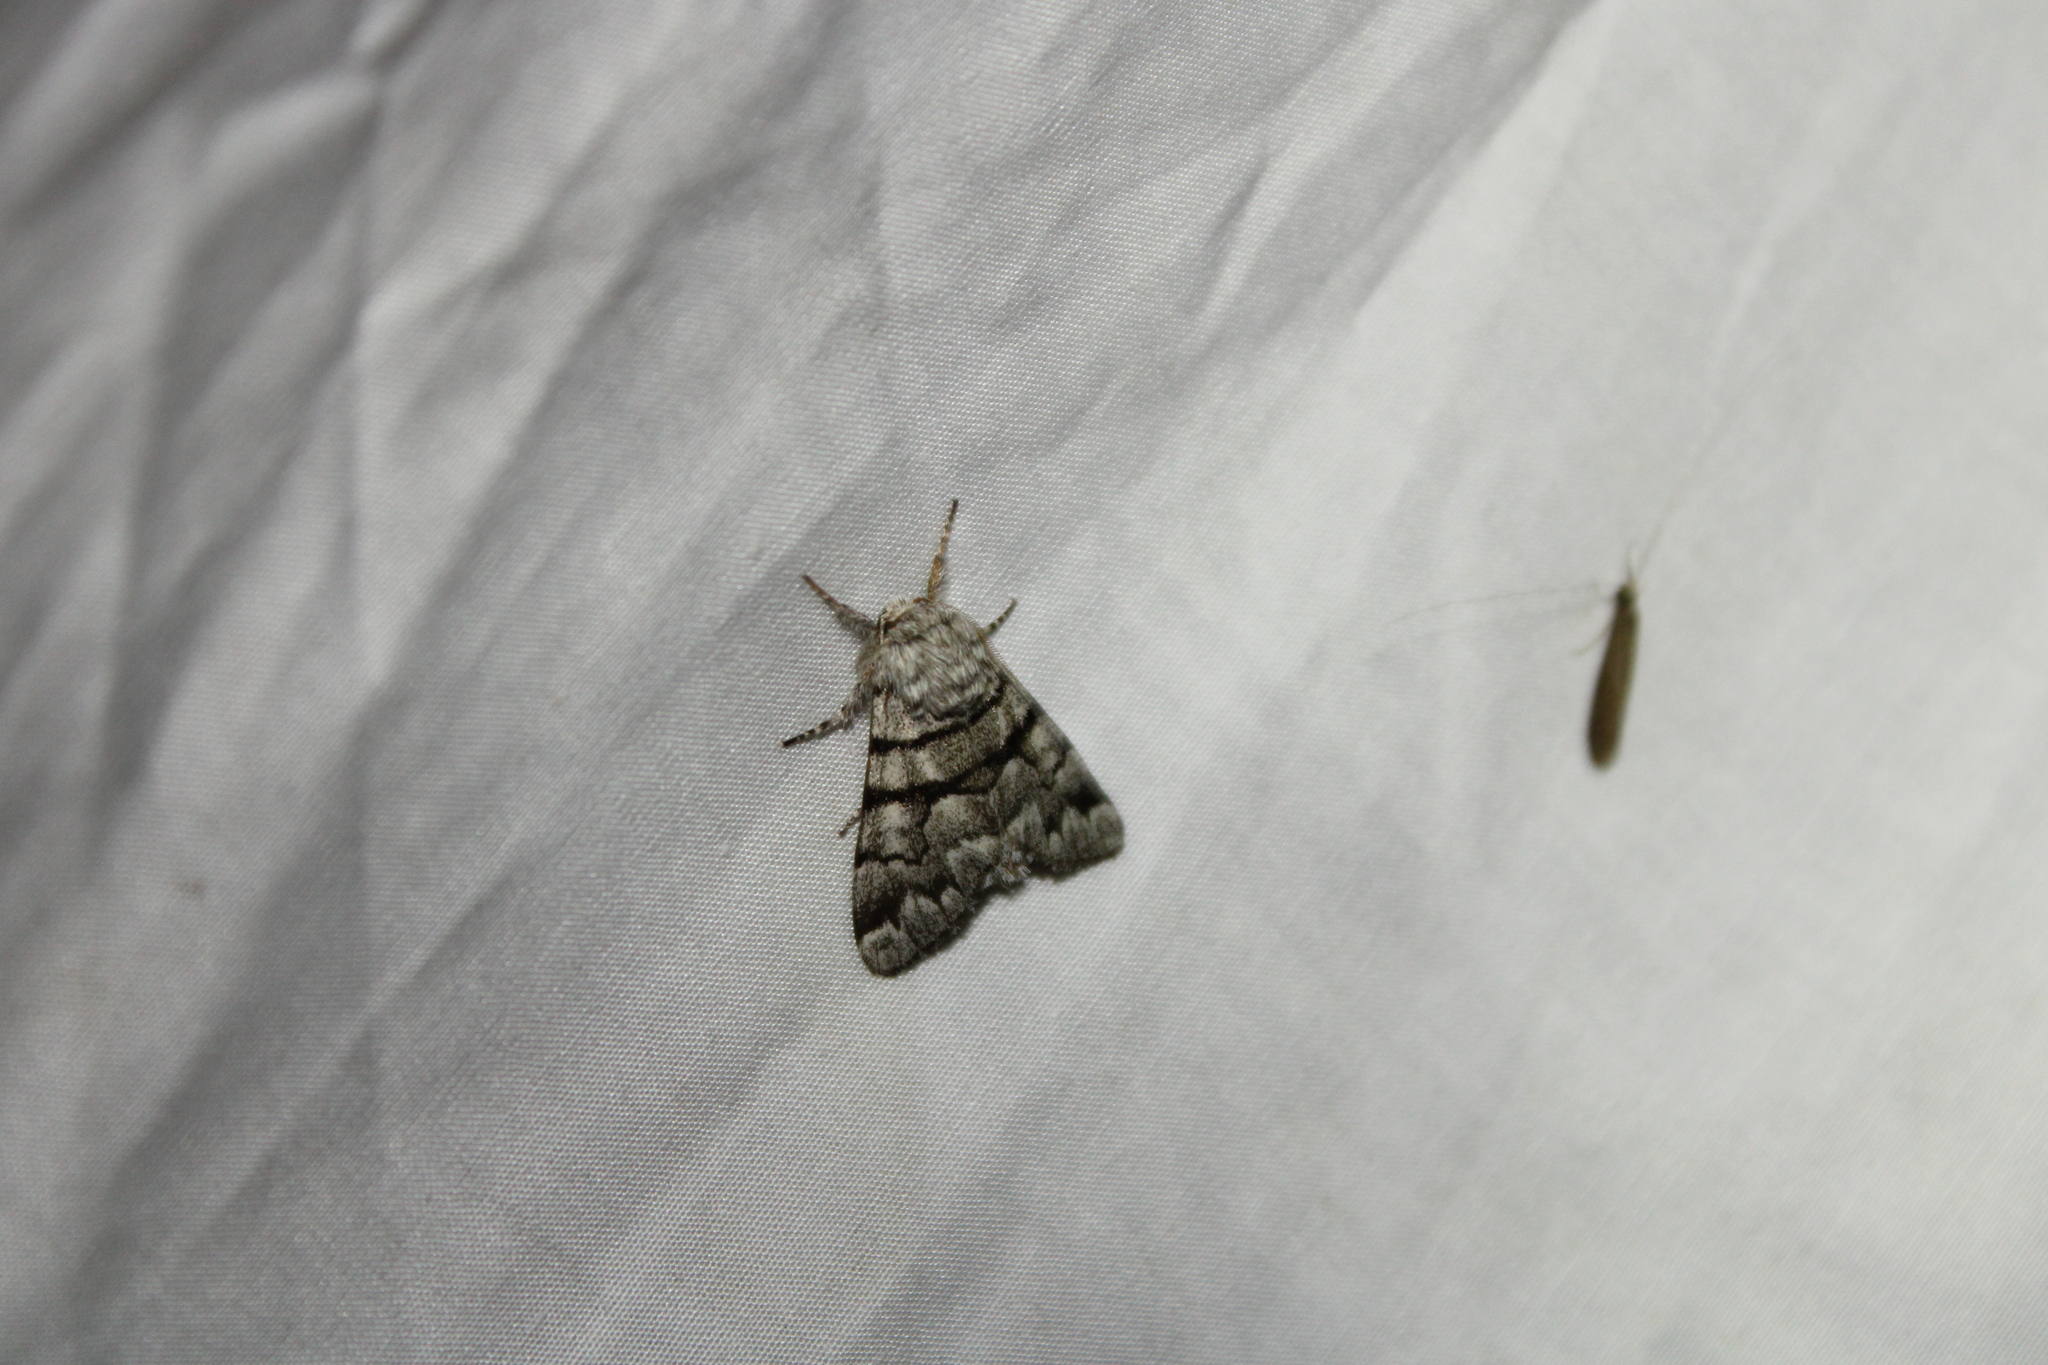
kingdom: Animalia
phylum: Arthropoda
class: Insecta
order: Lepidoptera
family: Noctuidae
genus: Panthea
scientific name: Panthea furcilla
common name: Eastern panthea moth
